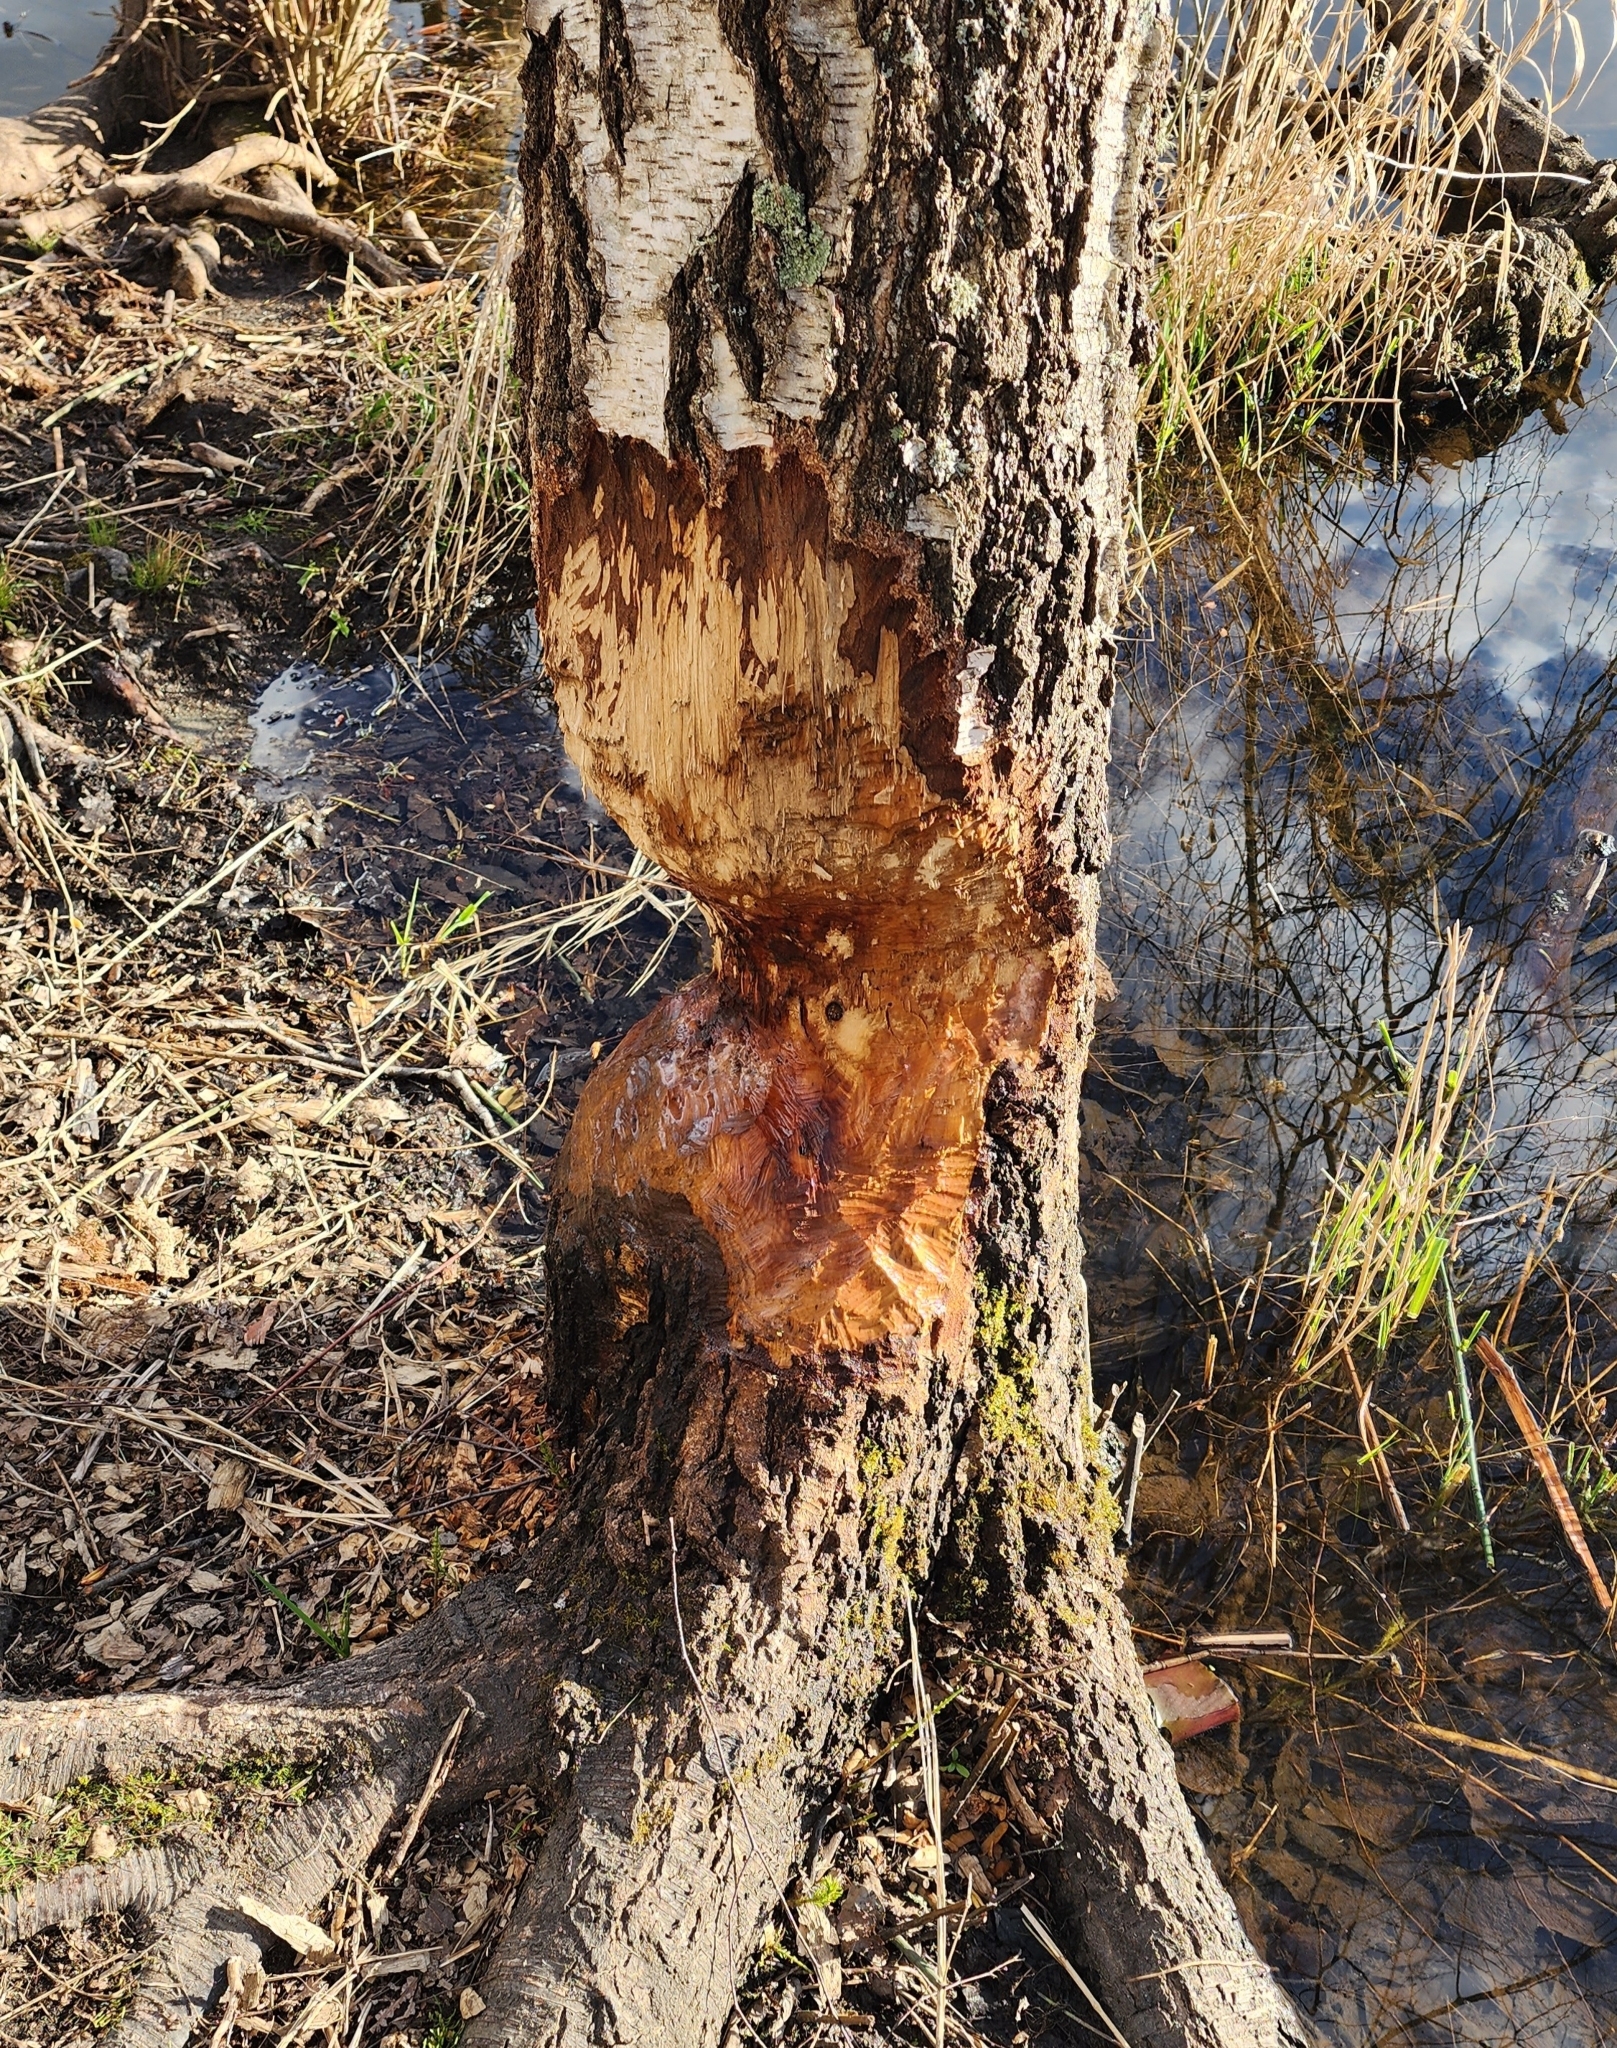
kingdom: Animalia
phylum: Chordata
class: Mammalia
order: Rodentia
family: Castoridae
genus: Castor
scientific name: Castor canadensis
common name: American beaver
